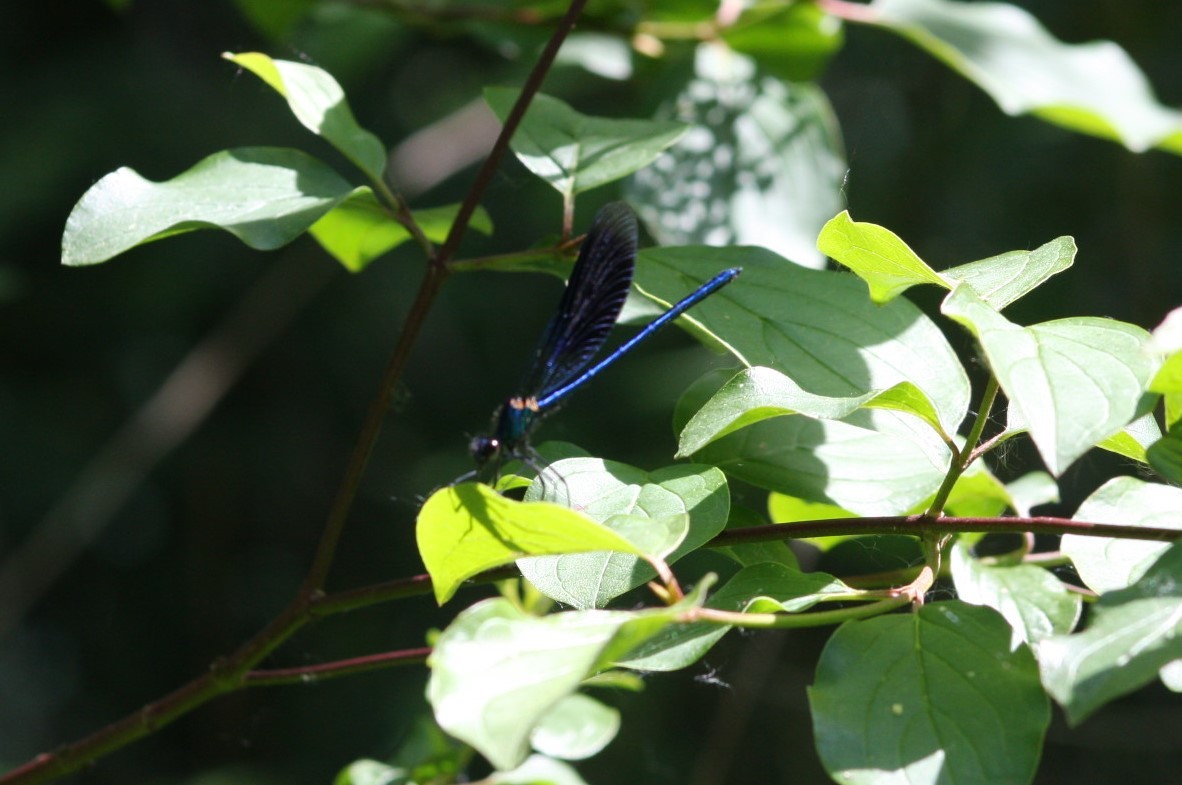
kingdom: Animalia
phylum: Arthropoda
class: Insecta
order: Odonata
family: Calopterygidae
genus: Calopteryx
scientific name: Calopteryx splendens
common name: Banded demoiselle
